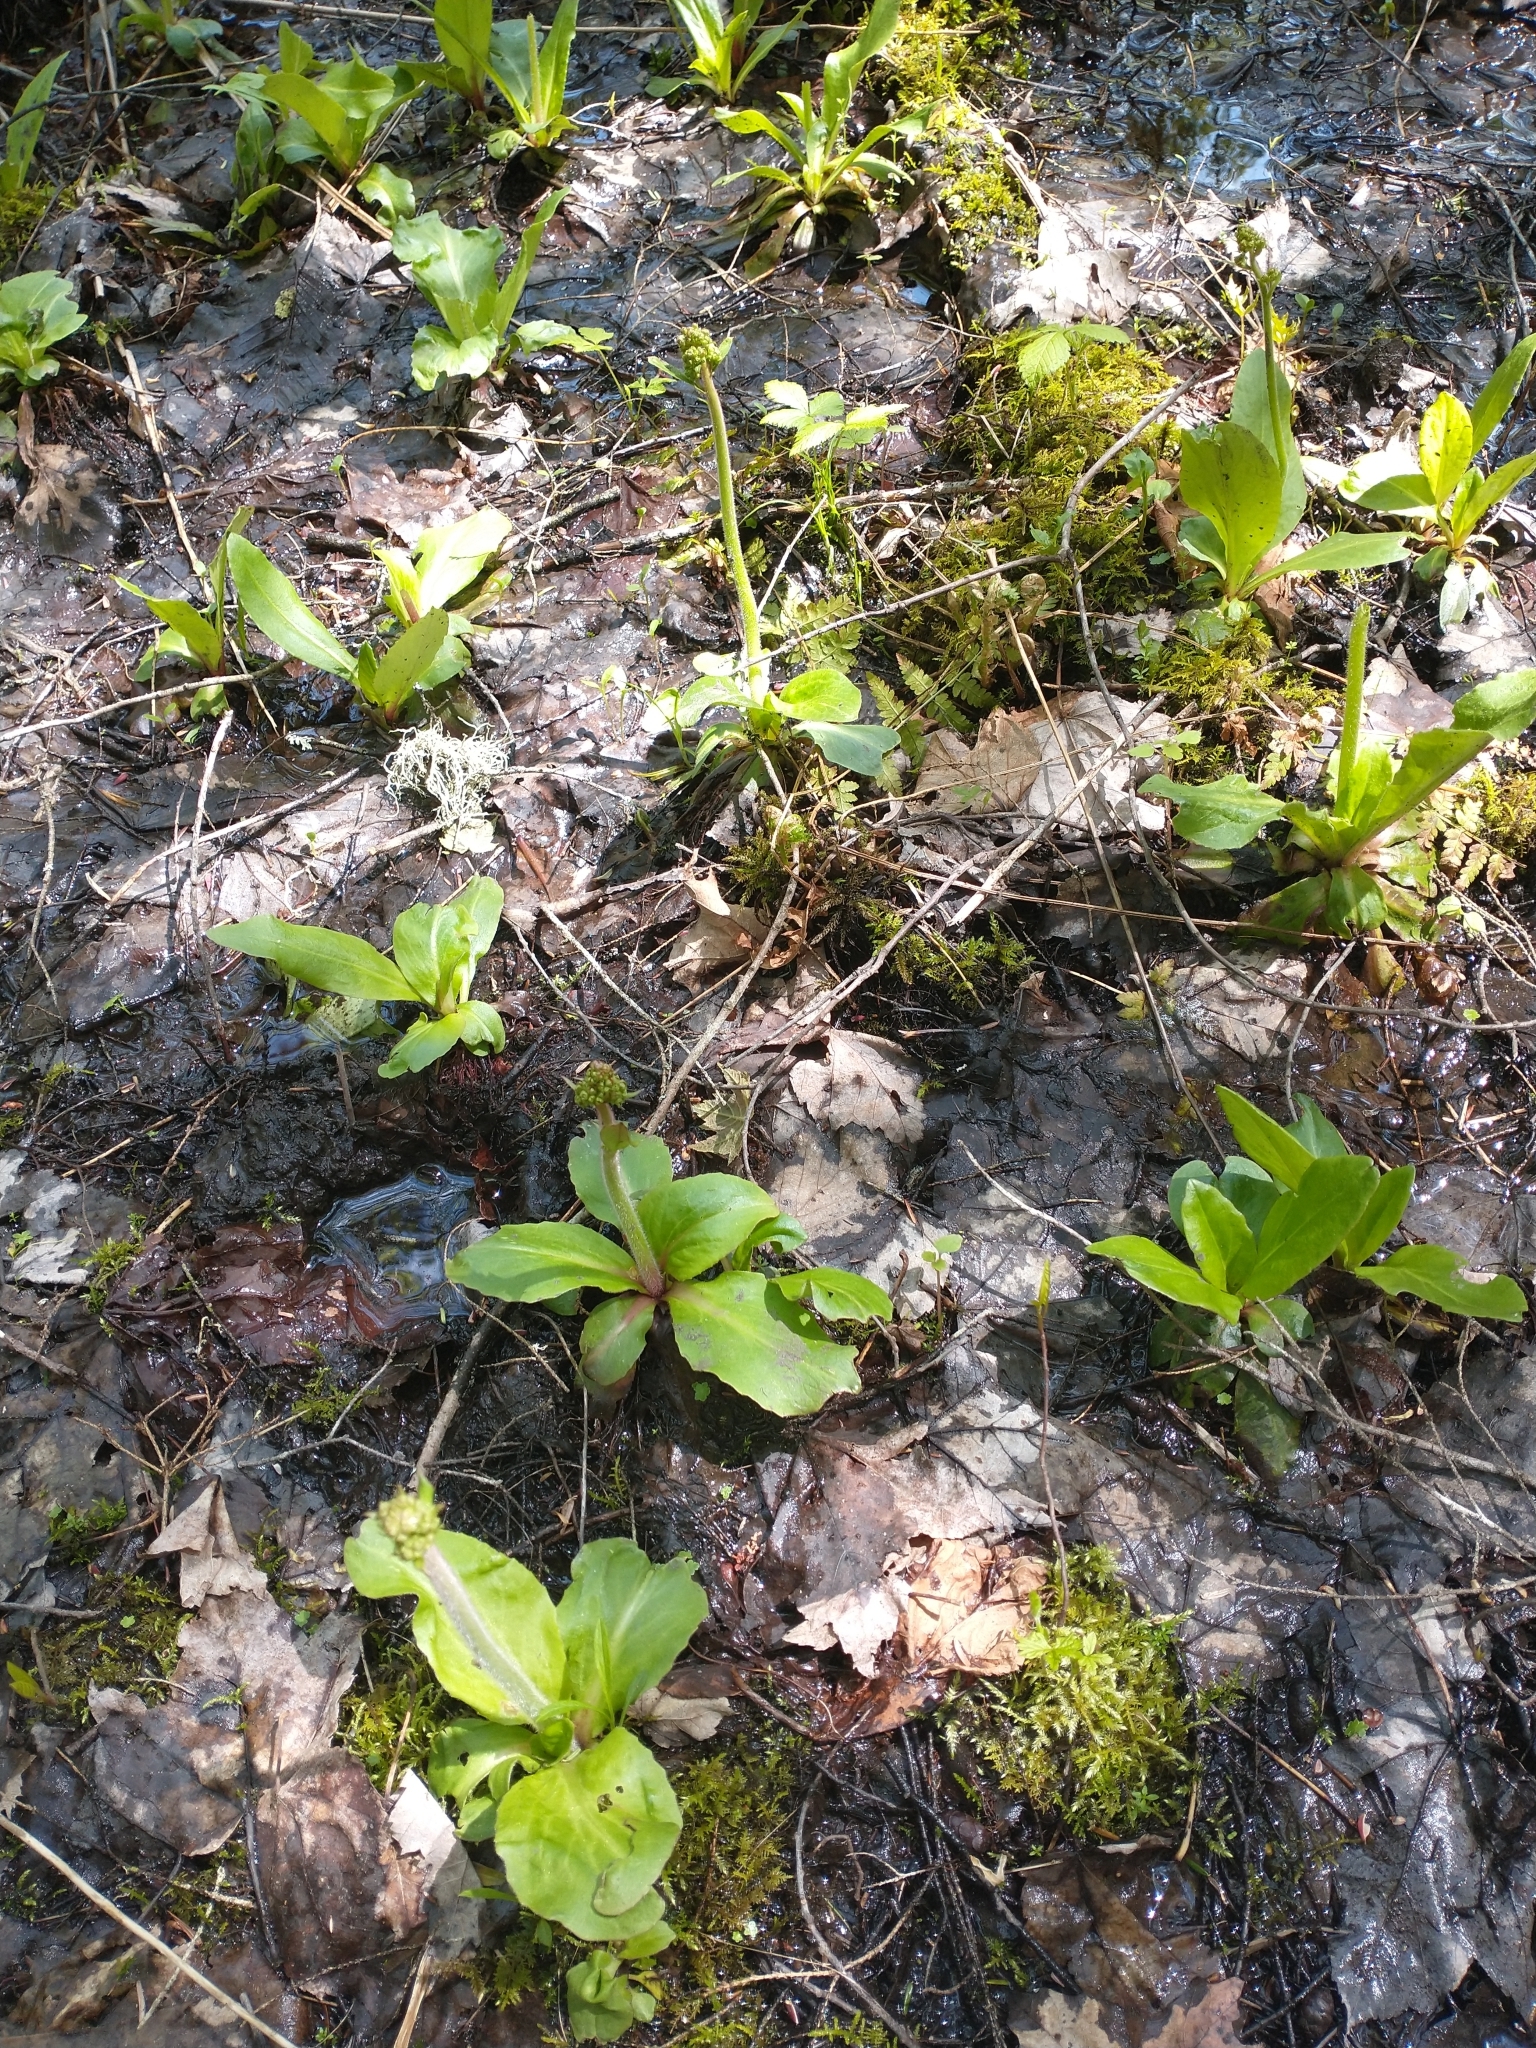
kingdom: Plantae
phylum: Tracheophyta
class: Magnoliopsida
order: Saxifragales
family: Saxifragaceae
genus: Micranthes
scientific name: Micranthes pensylvanica
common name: Marsh saxifrage
